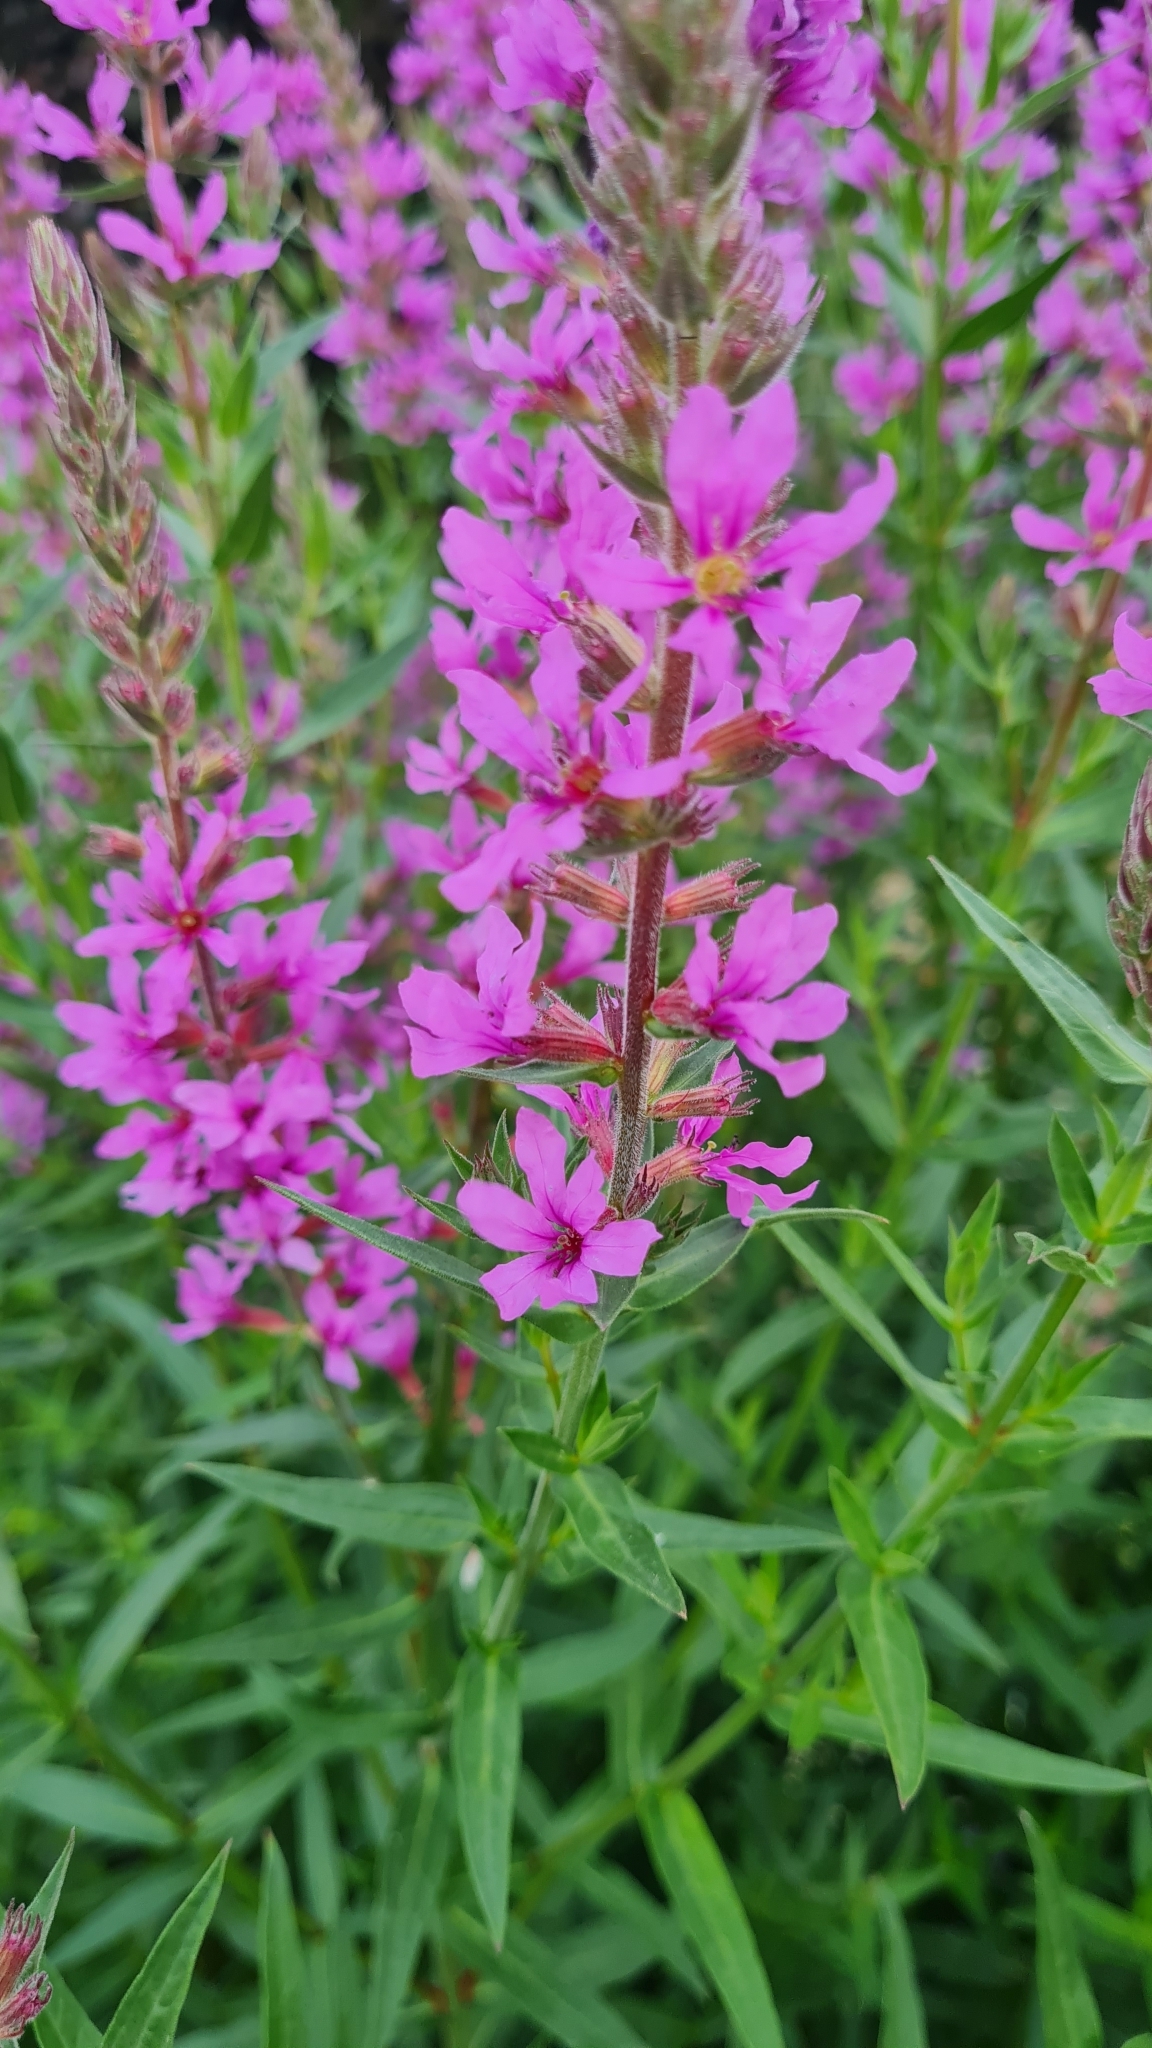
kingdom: Plantae
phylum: Tracheophyta
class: Magnoliopsida
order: Myrtales
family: Lythraceae
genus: Lythrum
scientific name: Lythrum salicaria
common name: Purple loosestrife
